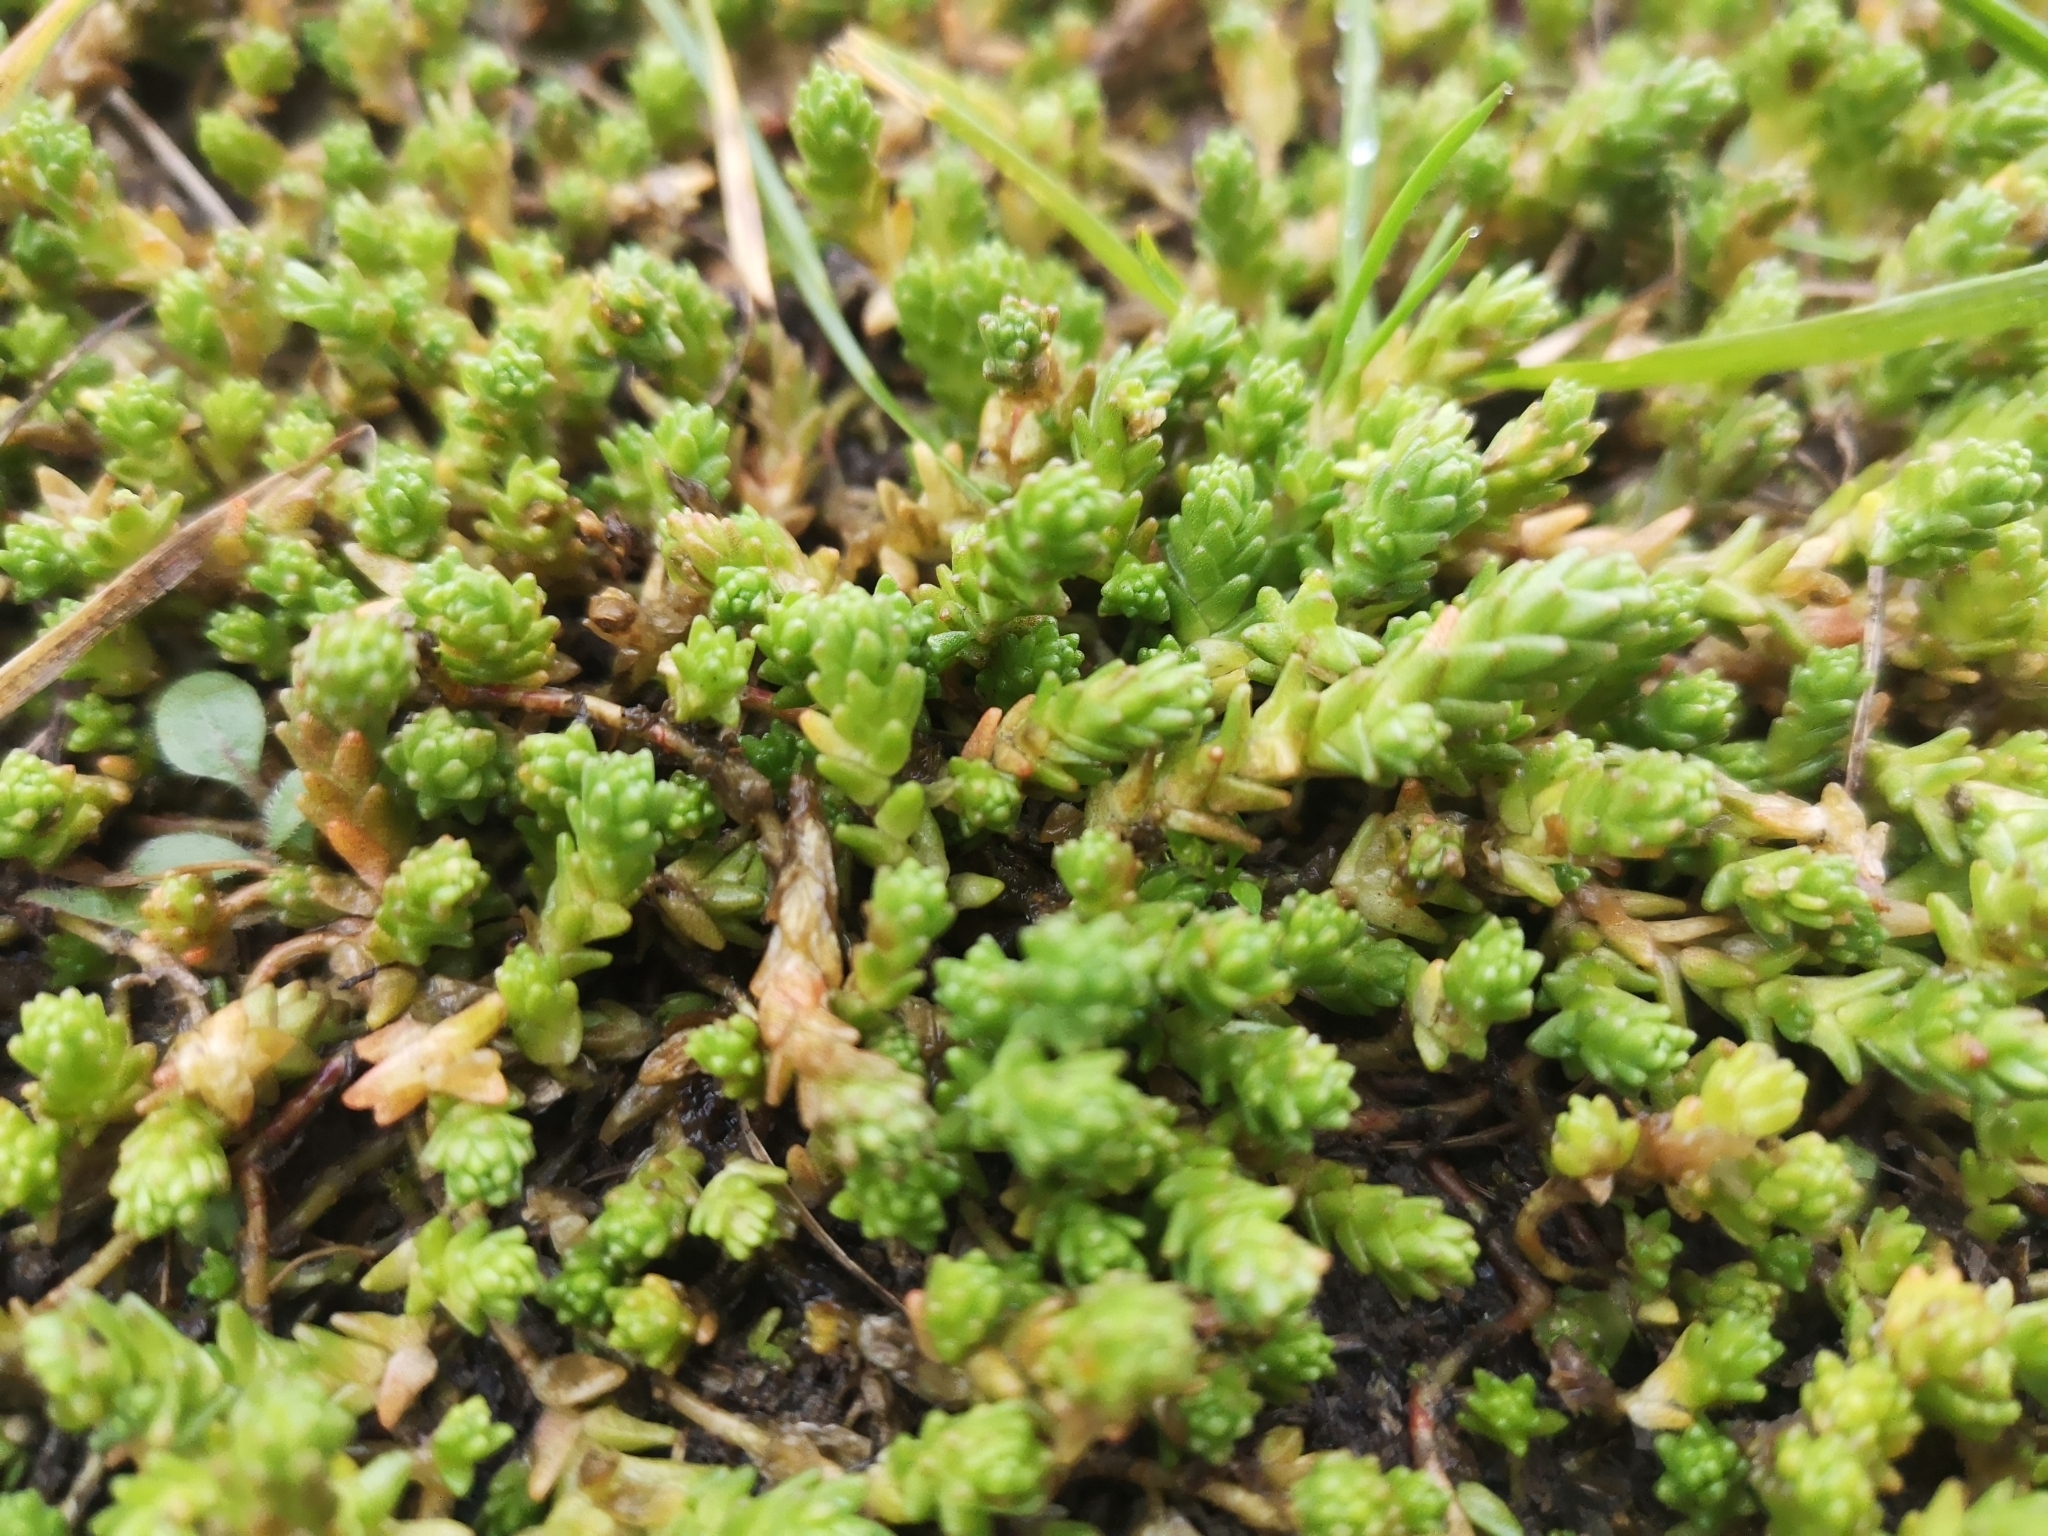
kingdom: Plantae
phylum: Tracheophyta
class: Magnoliopsida
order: Saxifragales
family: Crassulaceae
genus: Sedum
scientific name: Sedum acre
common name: Biting stonecrop
